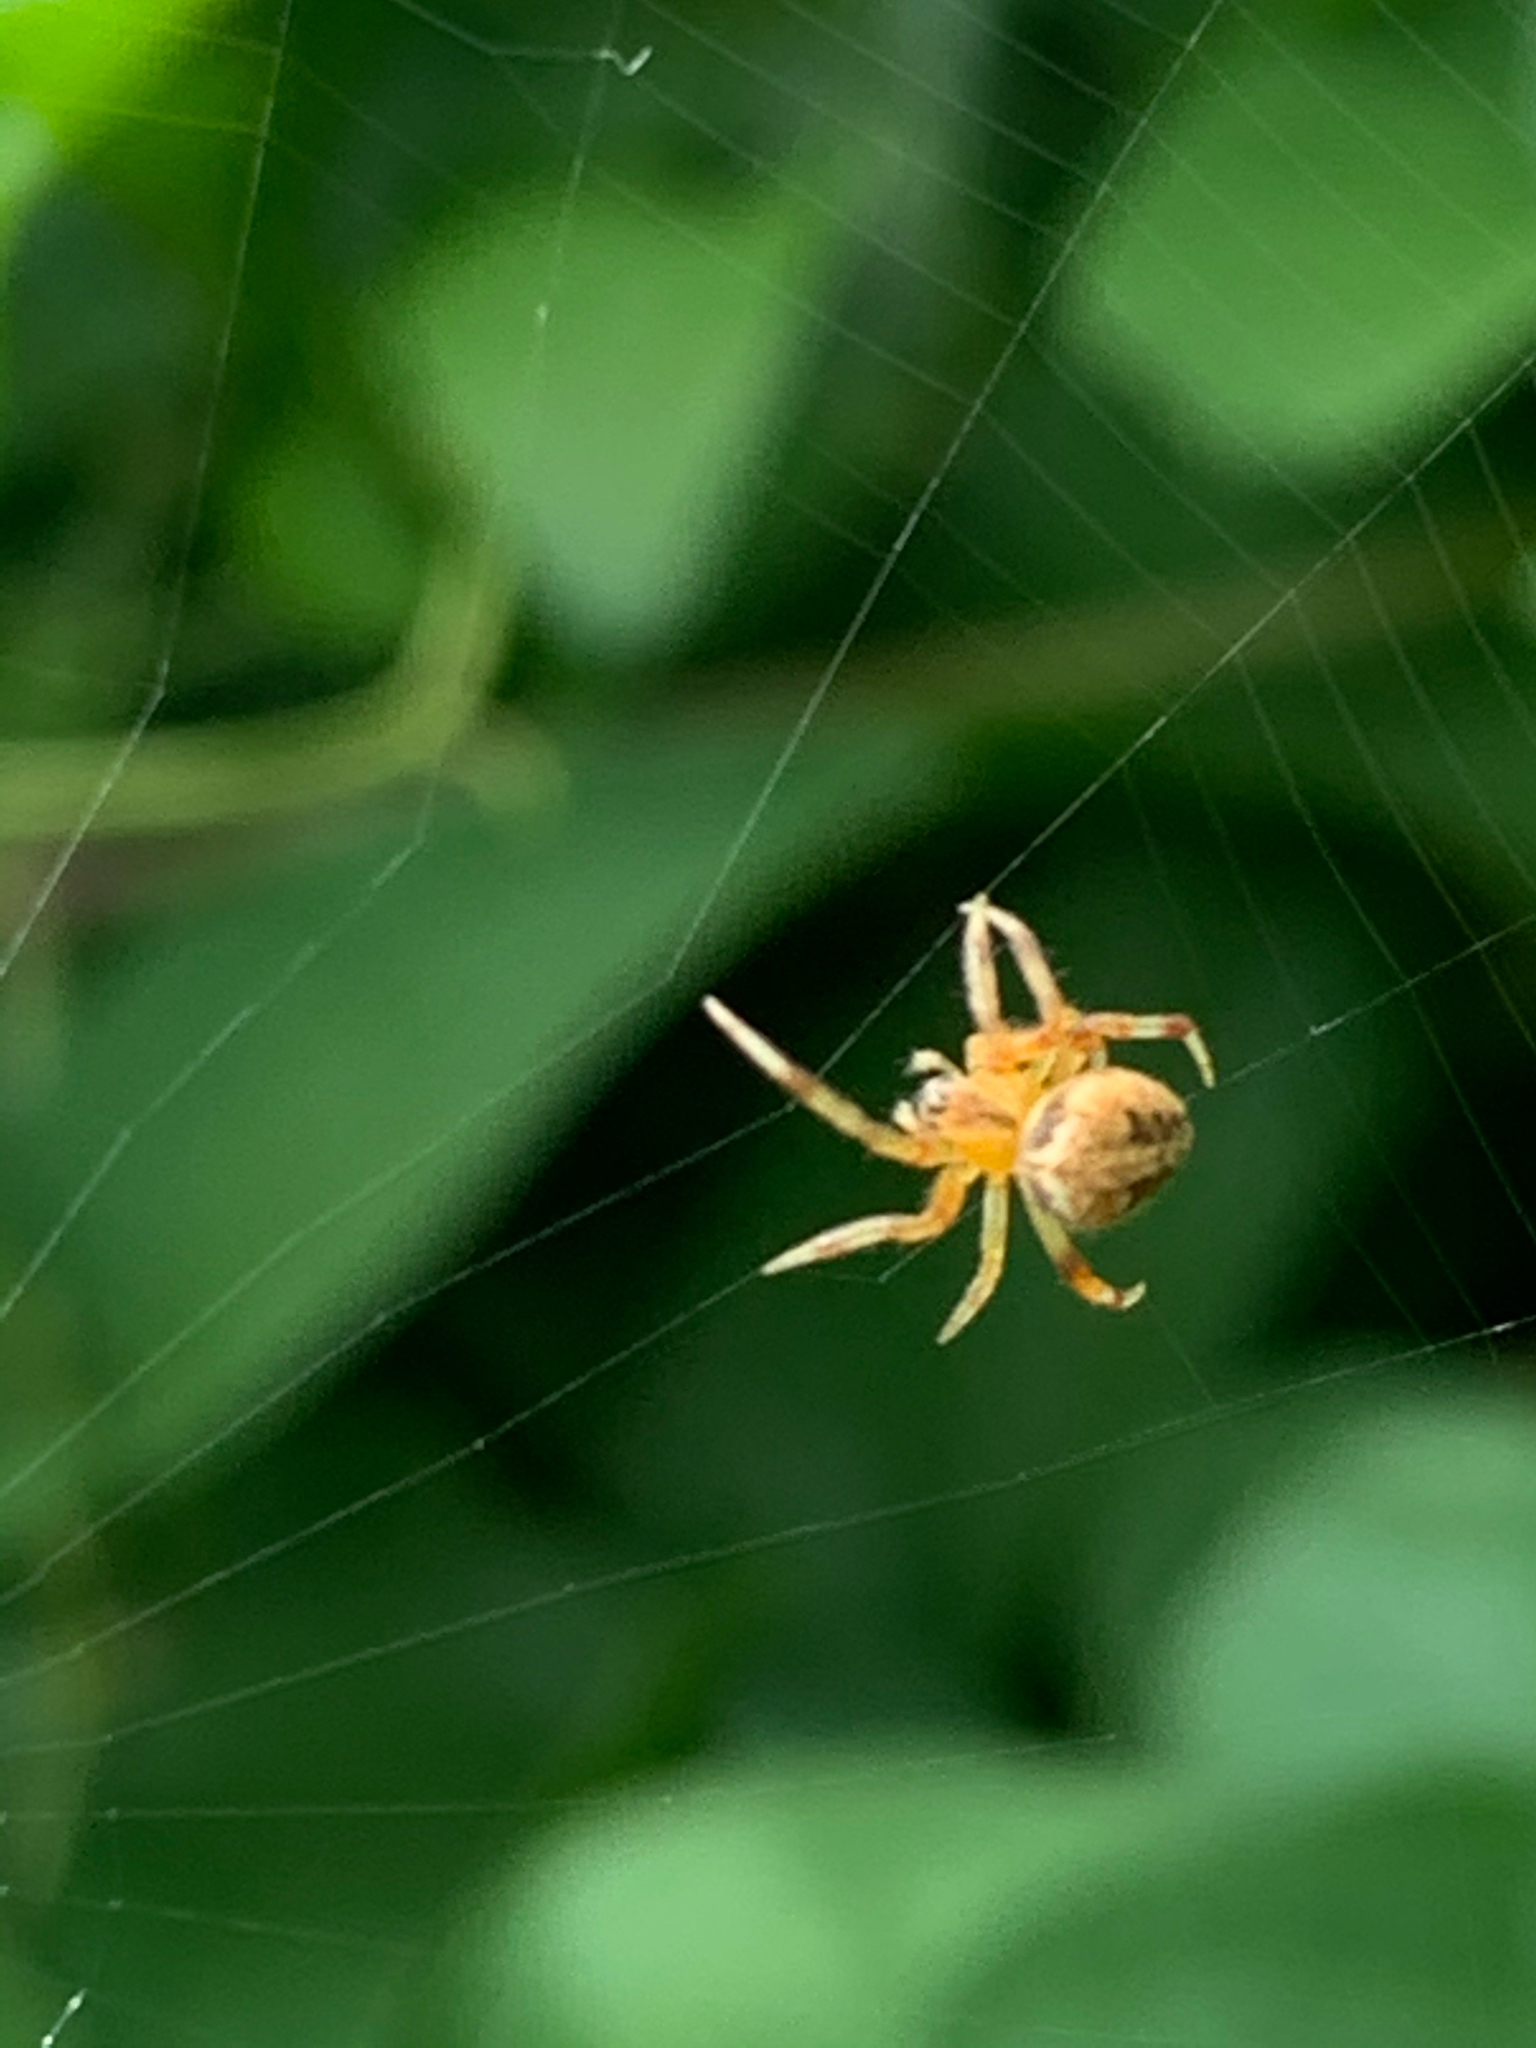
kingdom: Animalia
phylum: Arthropoda
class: Arachnida
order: Araneae
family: Araneidae
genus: Neoscona
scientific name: Neoscona arabesca
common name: Orb weavers
